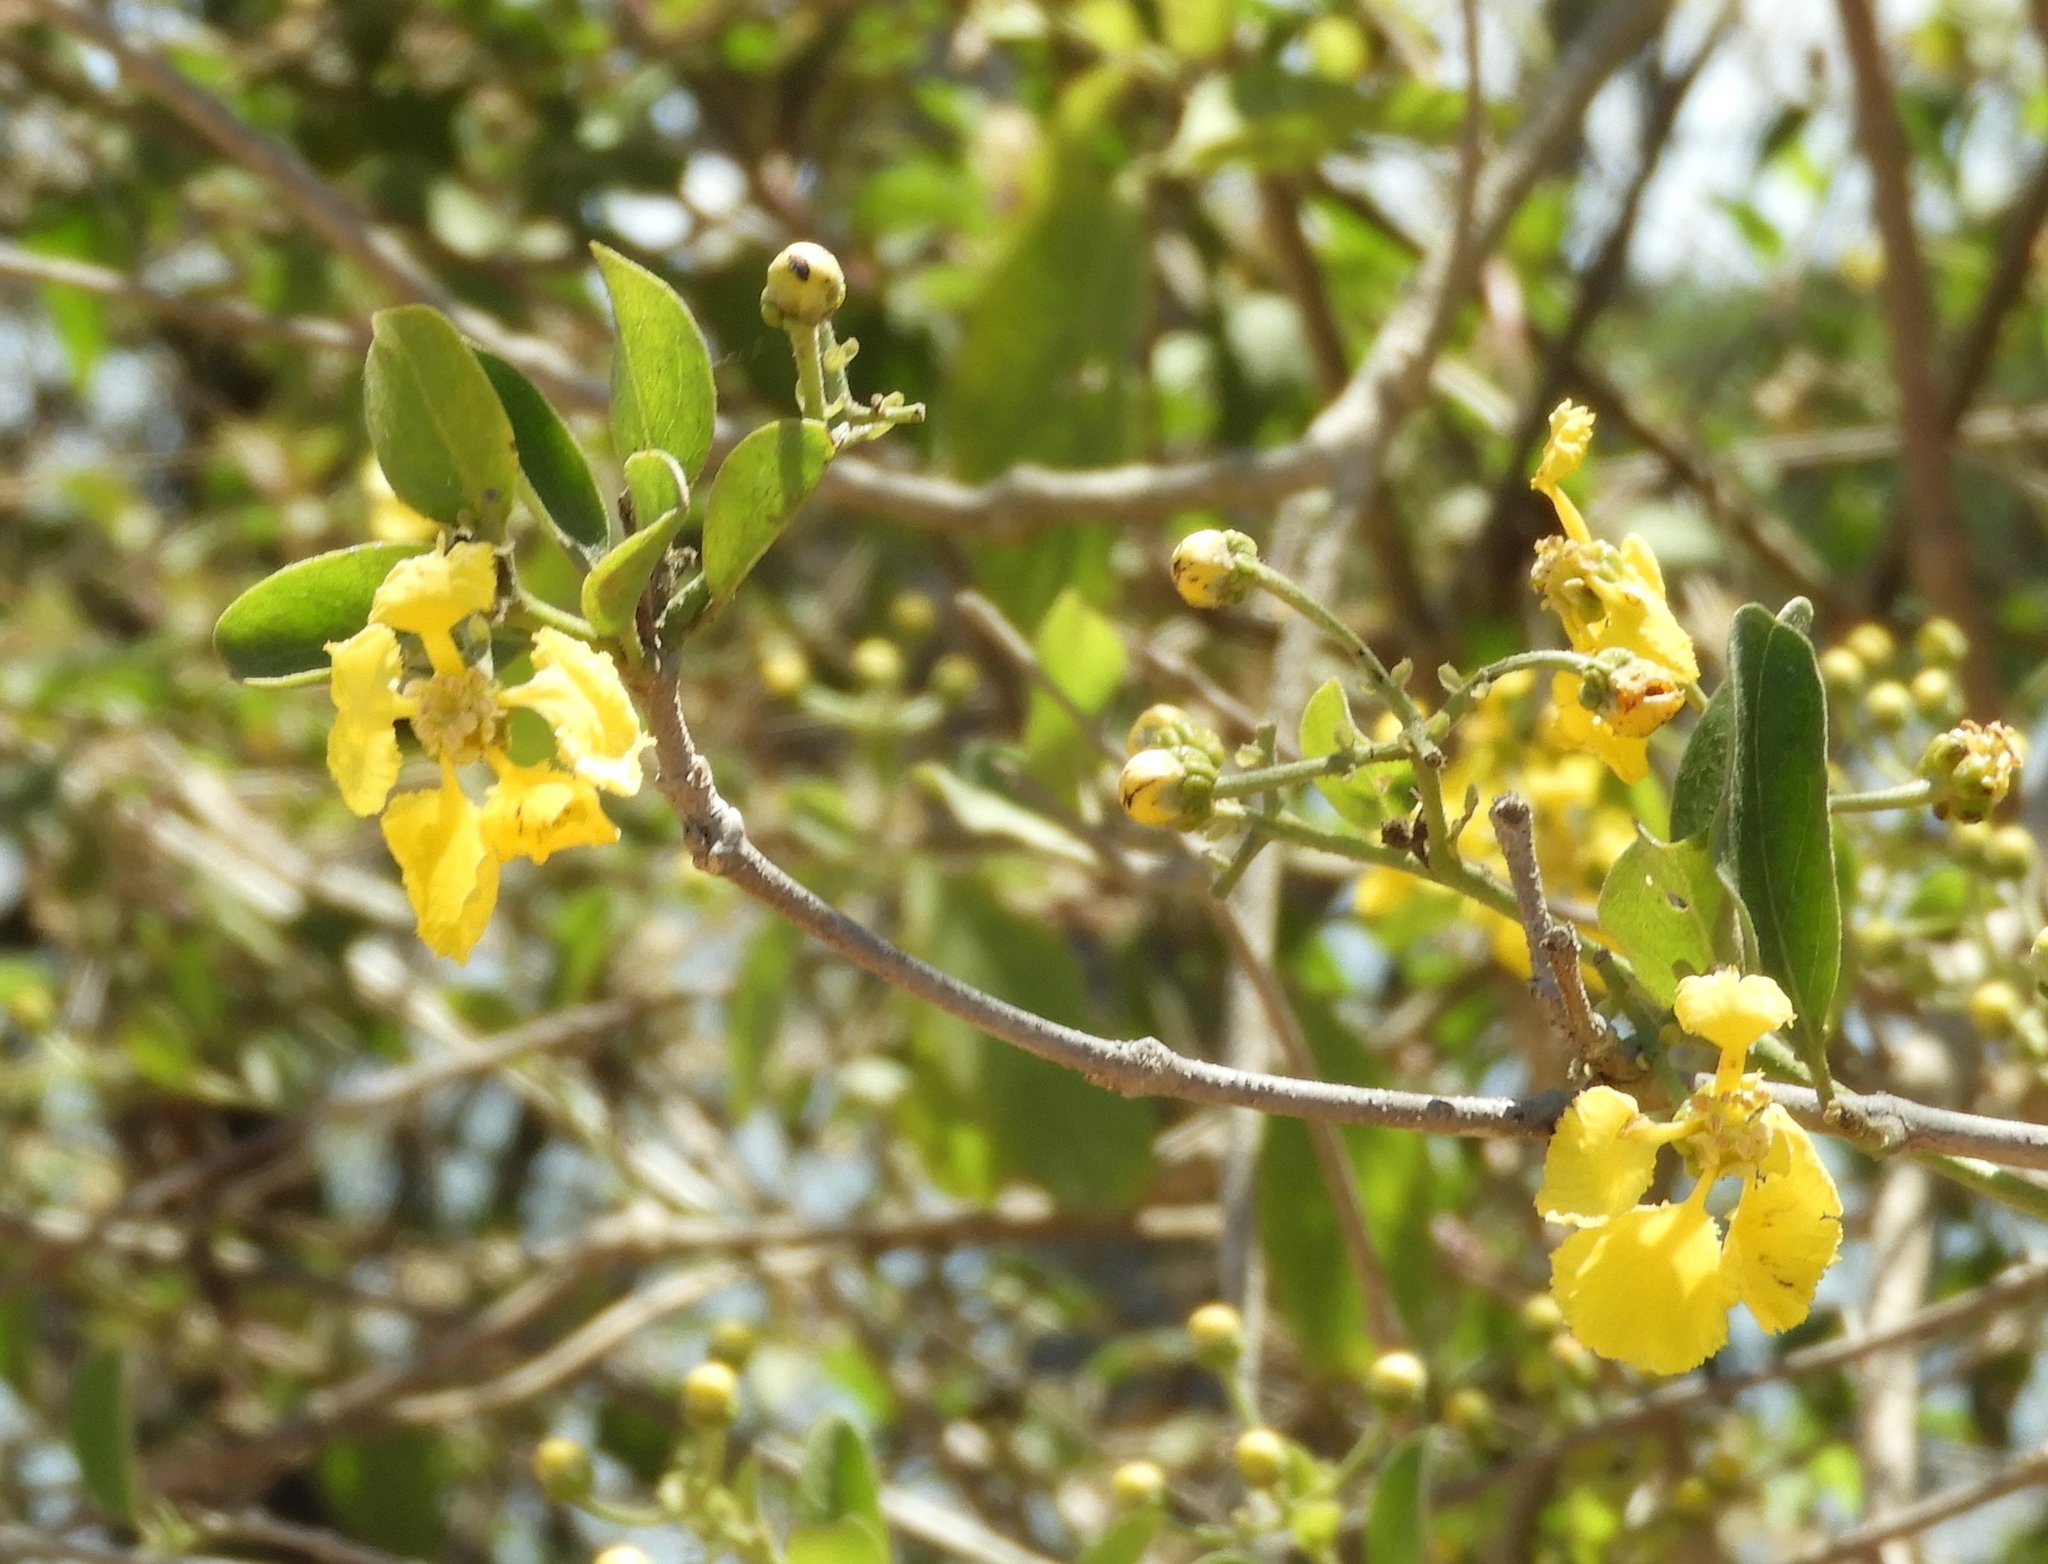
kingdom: Plantae
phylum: Tracheophyta
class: Magnoliopsida
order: Malpighiales
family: Malpighiaceae
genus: Callaeum
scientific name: Callaeum macropterum
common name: Mexican butterfly-vine
